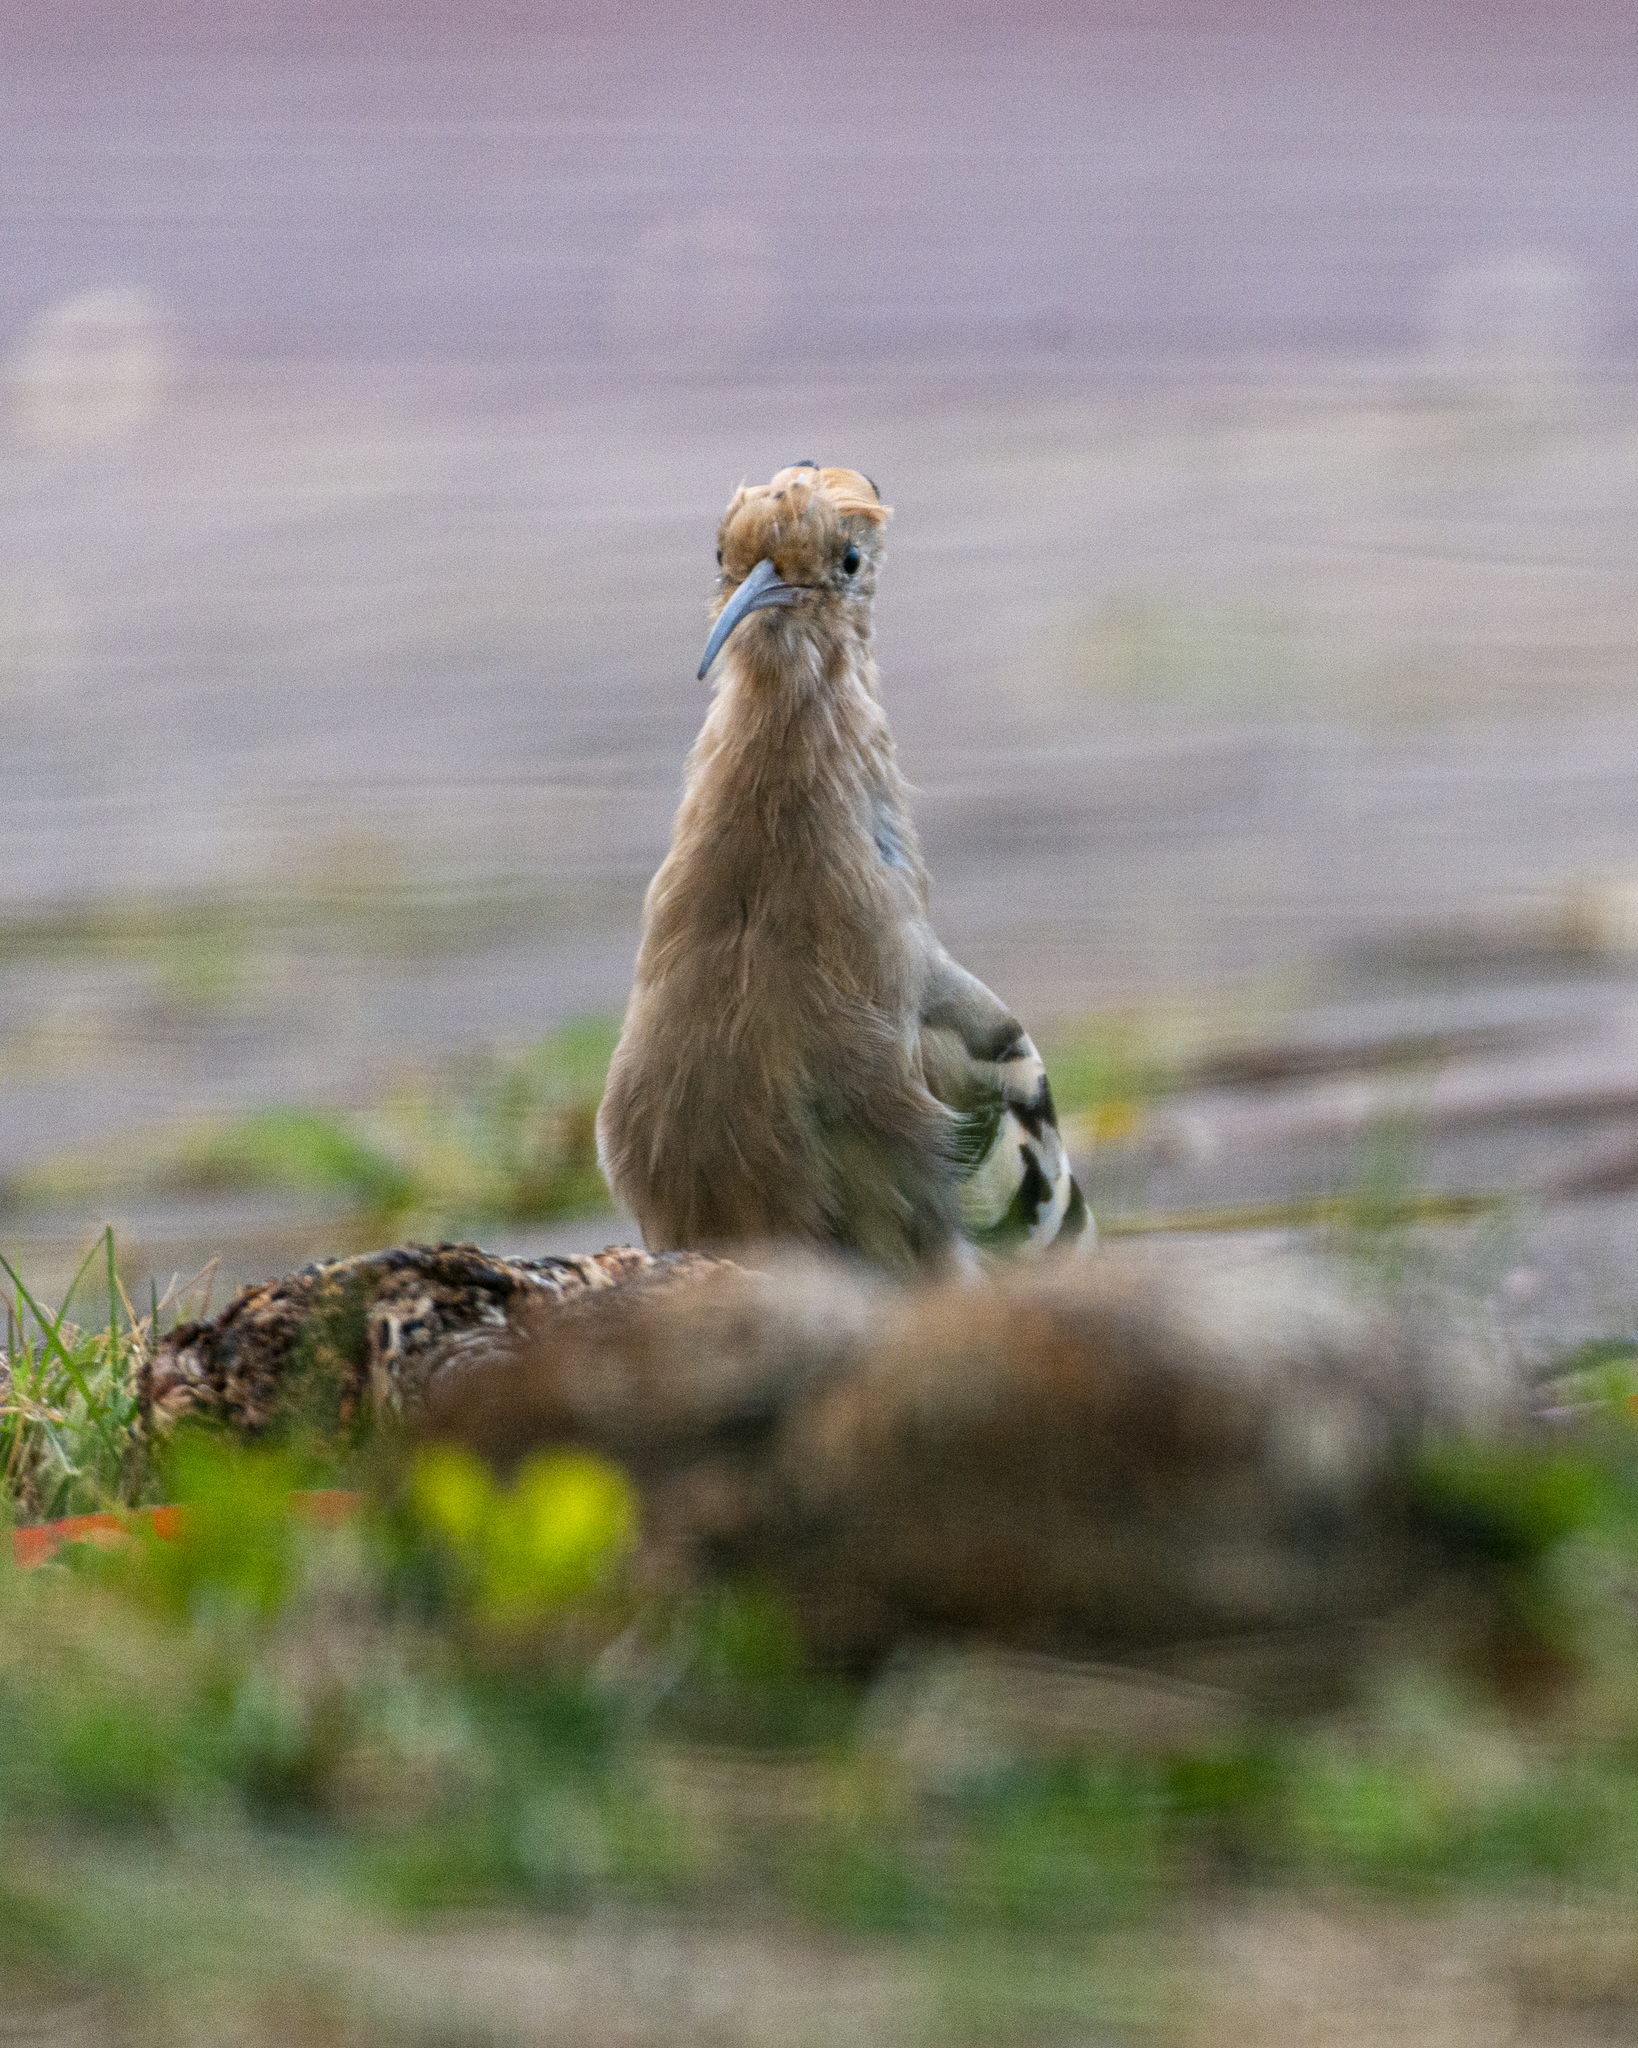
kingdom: Animalia
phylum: Chordata
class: Aves
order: Bucerotiformes
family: Upupidae
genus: Upupa
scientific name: Upupa epops
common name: Eurasian hoopoe
